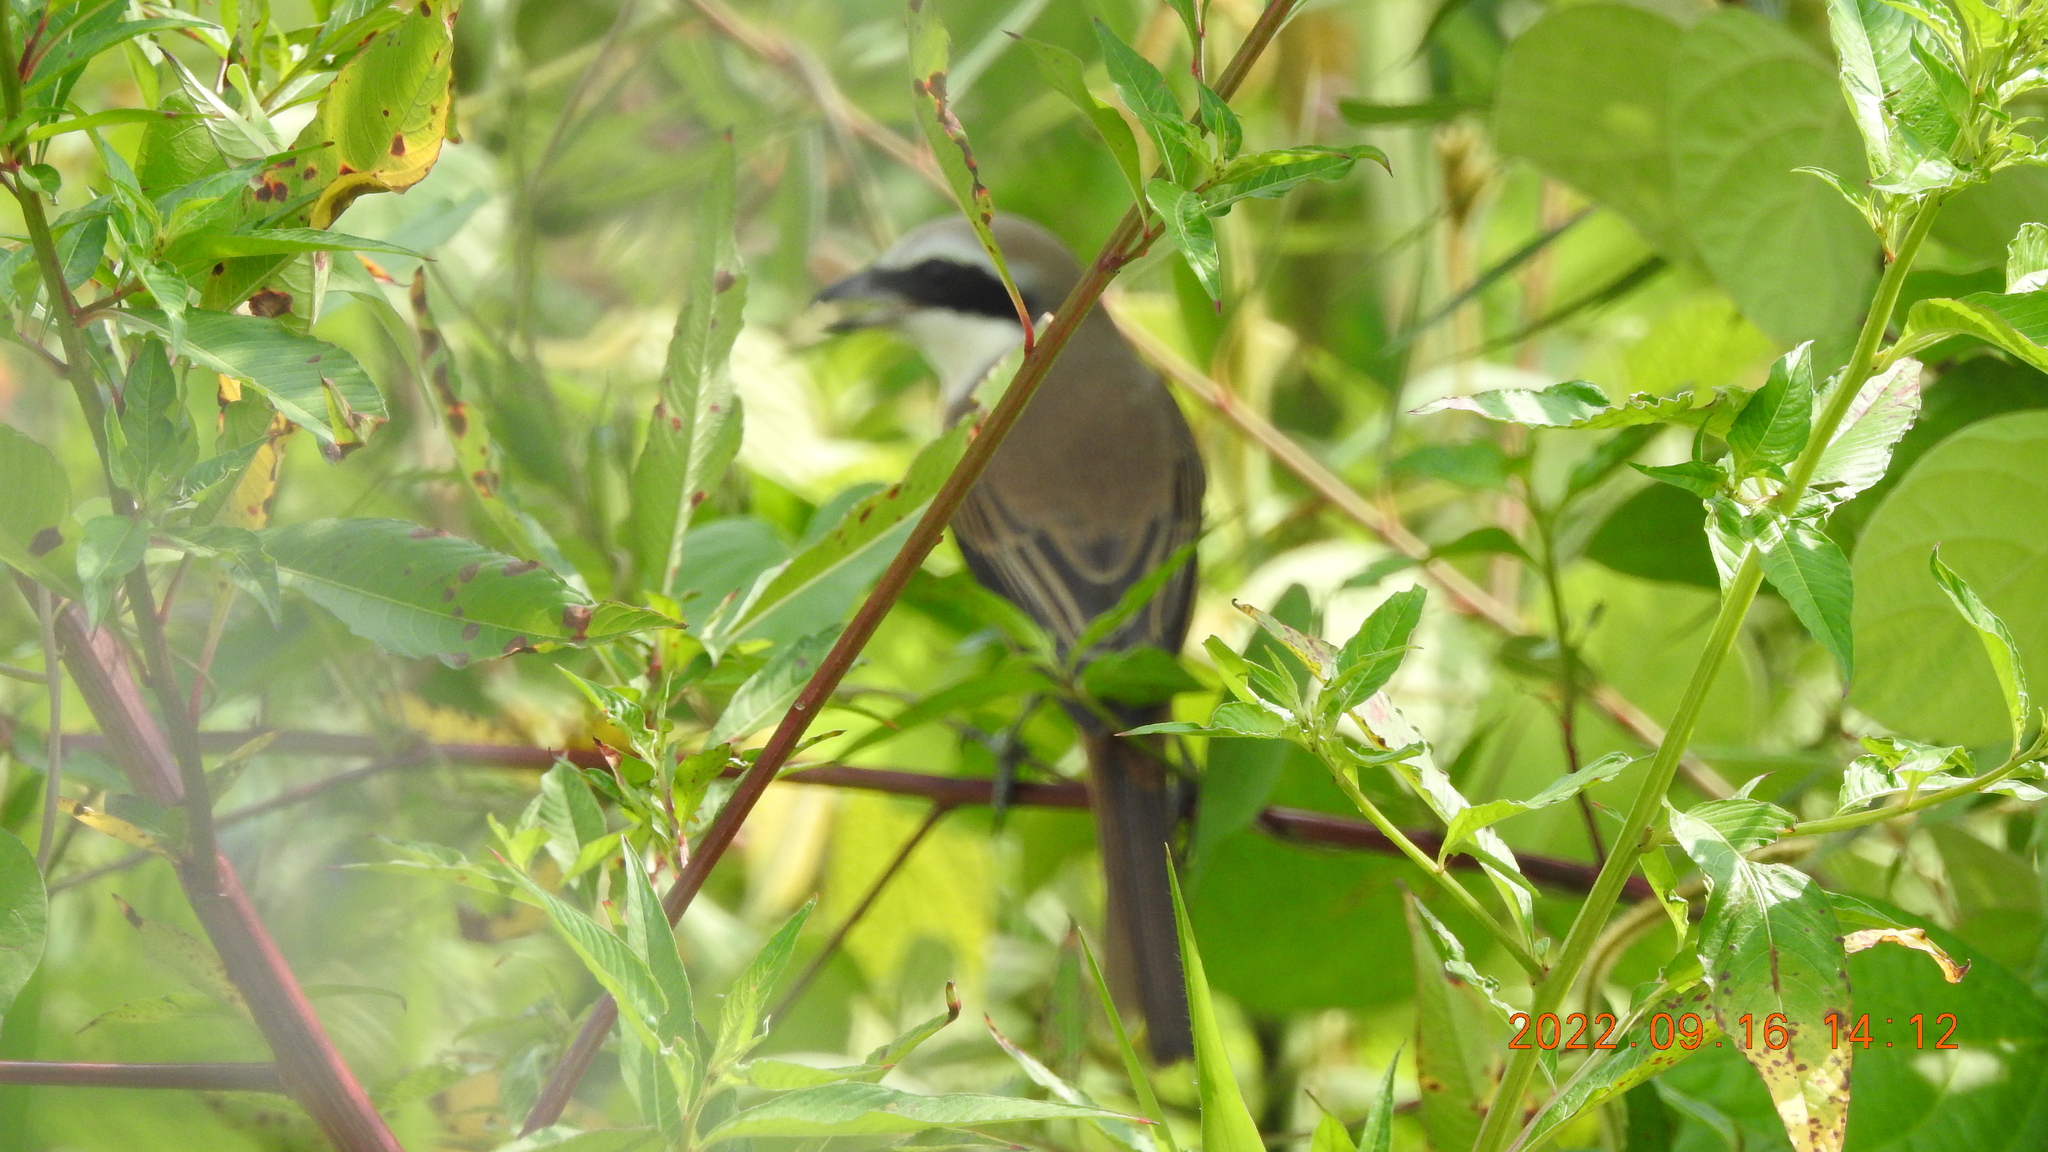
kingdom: Animalia
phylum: Chordata
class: Aves
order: Passeriformes
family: Laniidae
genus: Lanius
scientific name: Lanius cristatus
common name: Brown shrike
